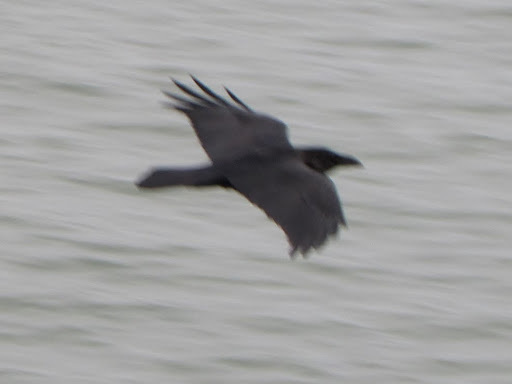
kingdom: Animalia
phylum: Chordata
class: Aves
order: Passeriformes
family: Corvidae
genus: Corvus
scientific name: Corvus corax
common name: Common raven
